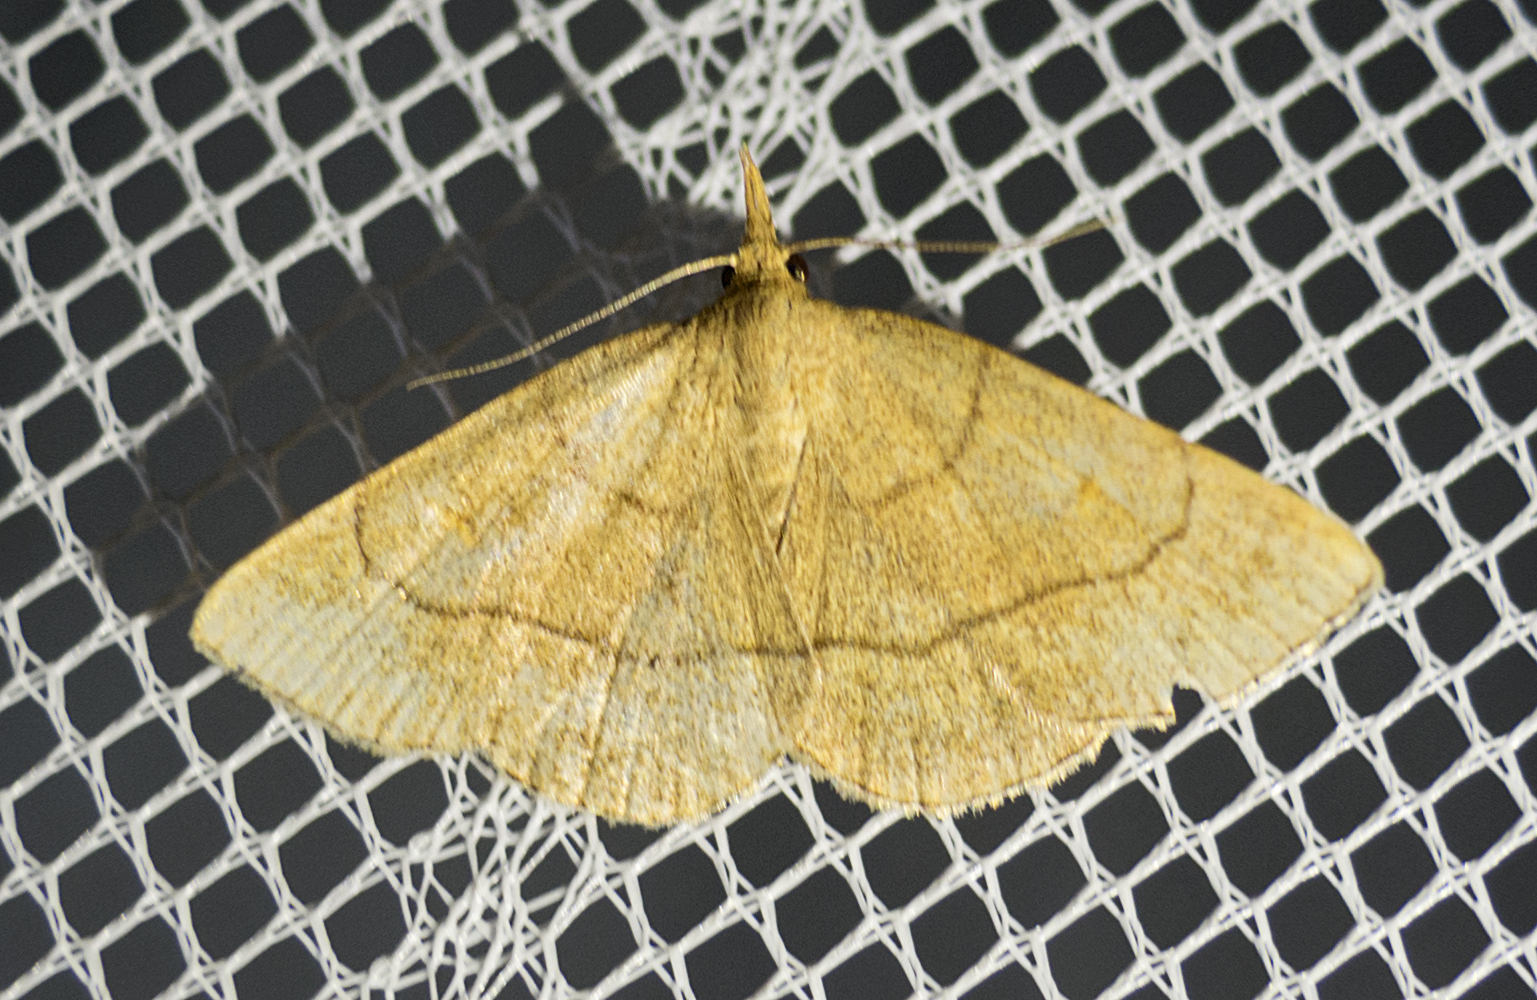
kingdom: Animalia
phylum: Arthropoda
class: Insecta
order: Lepidoptera
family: Erebidae
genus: Paracolax
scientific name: Paracolax tristalis
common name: Clay fan-foot
